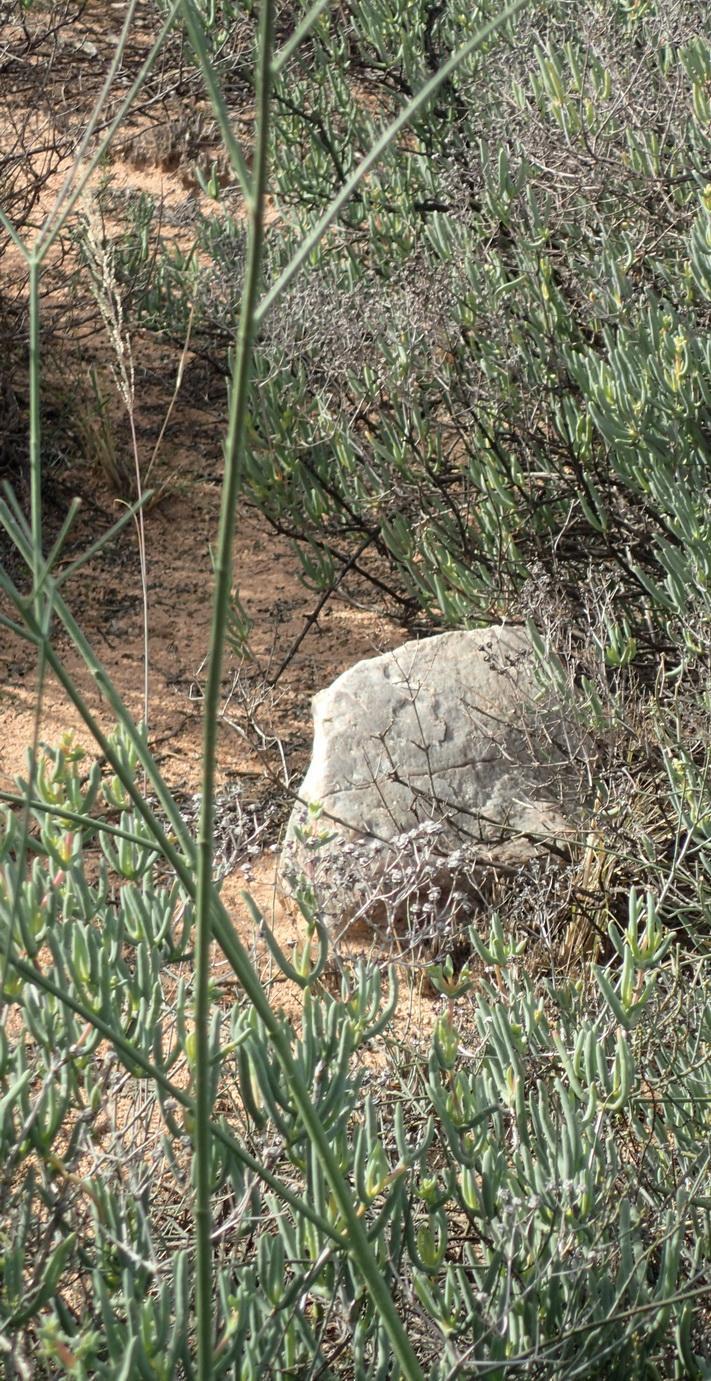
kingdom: Plantae
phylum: Tracheophyta
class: Magnoliopsida
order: Malpighiales
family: Euphorbiaceae
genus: Euphorbia
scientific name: Euphorbia tenax
